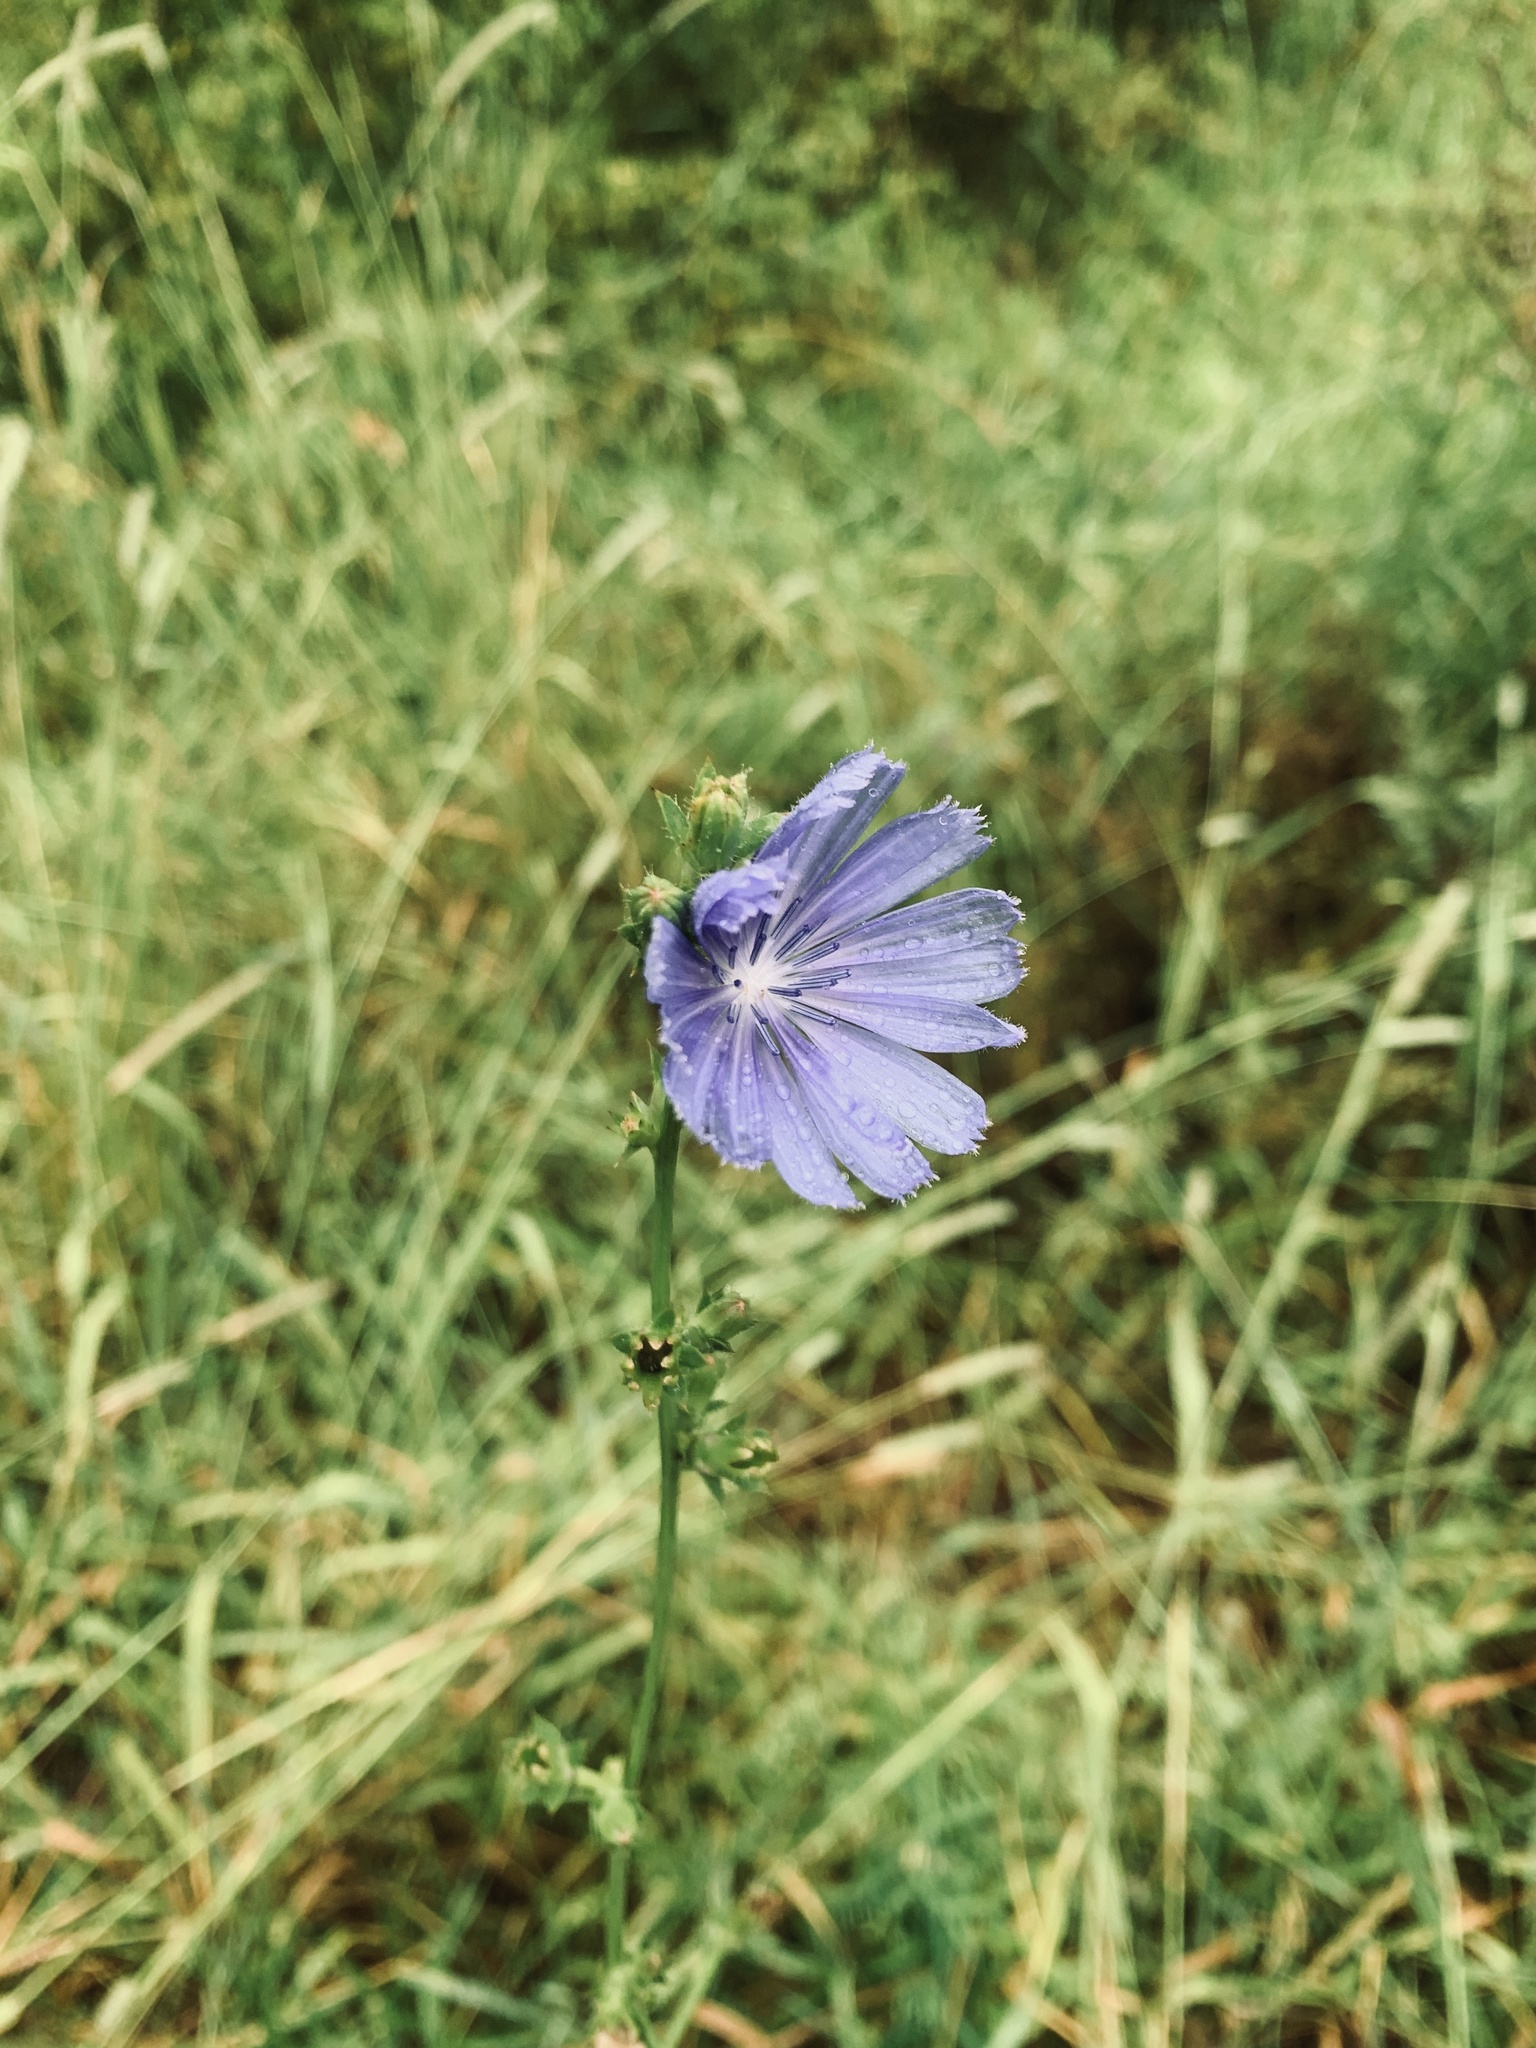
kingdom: Plantae
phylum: Tracheophyta
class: Magnoliopsida
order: Asterales
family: Asteraceae
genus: Cichorium
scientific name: Cichorium intybus
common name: Chicory
